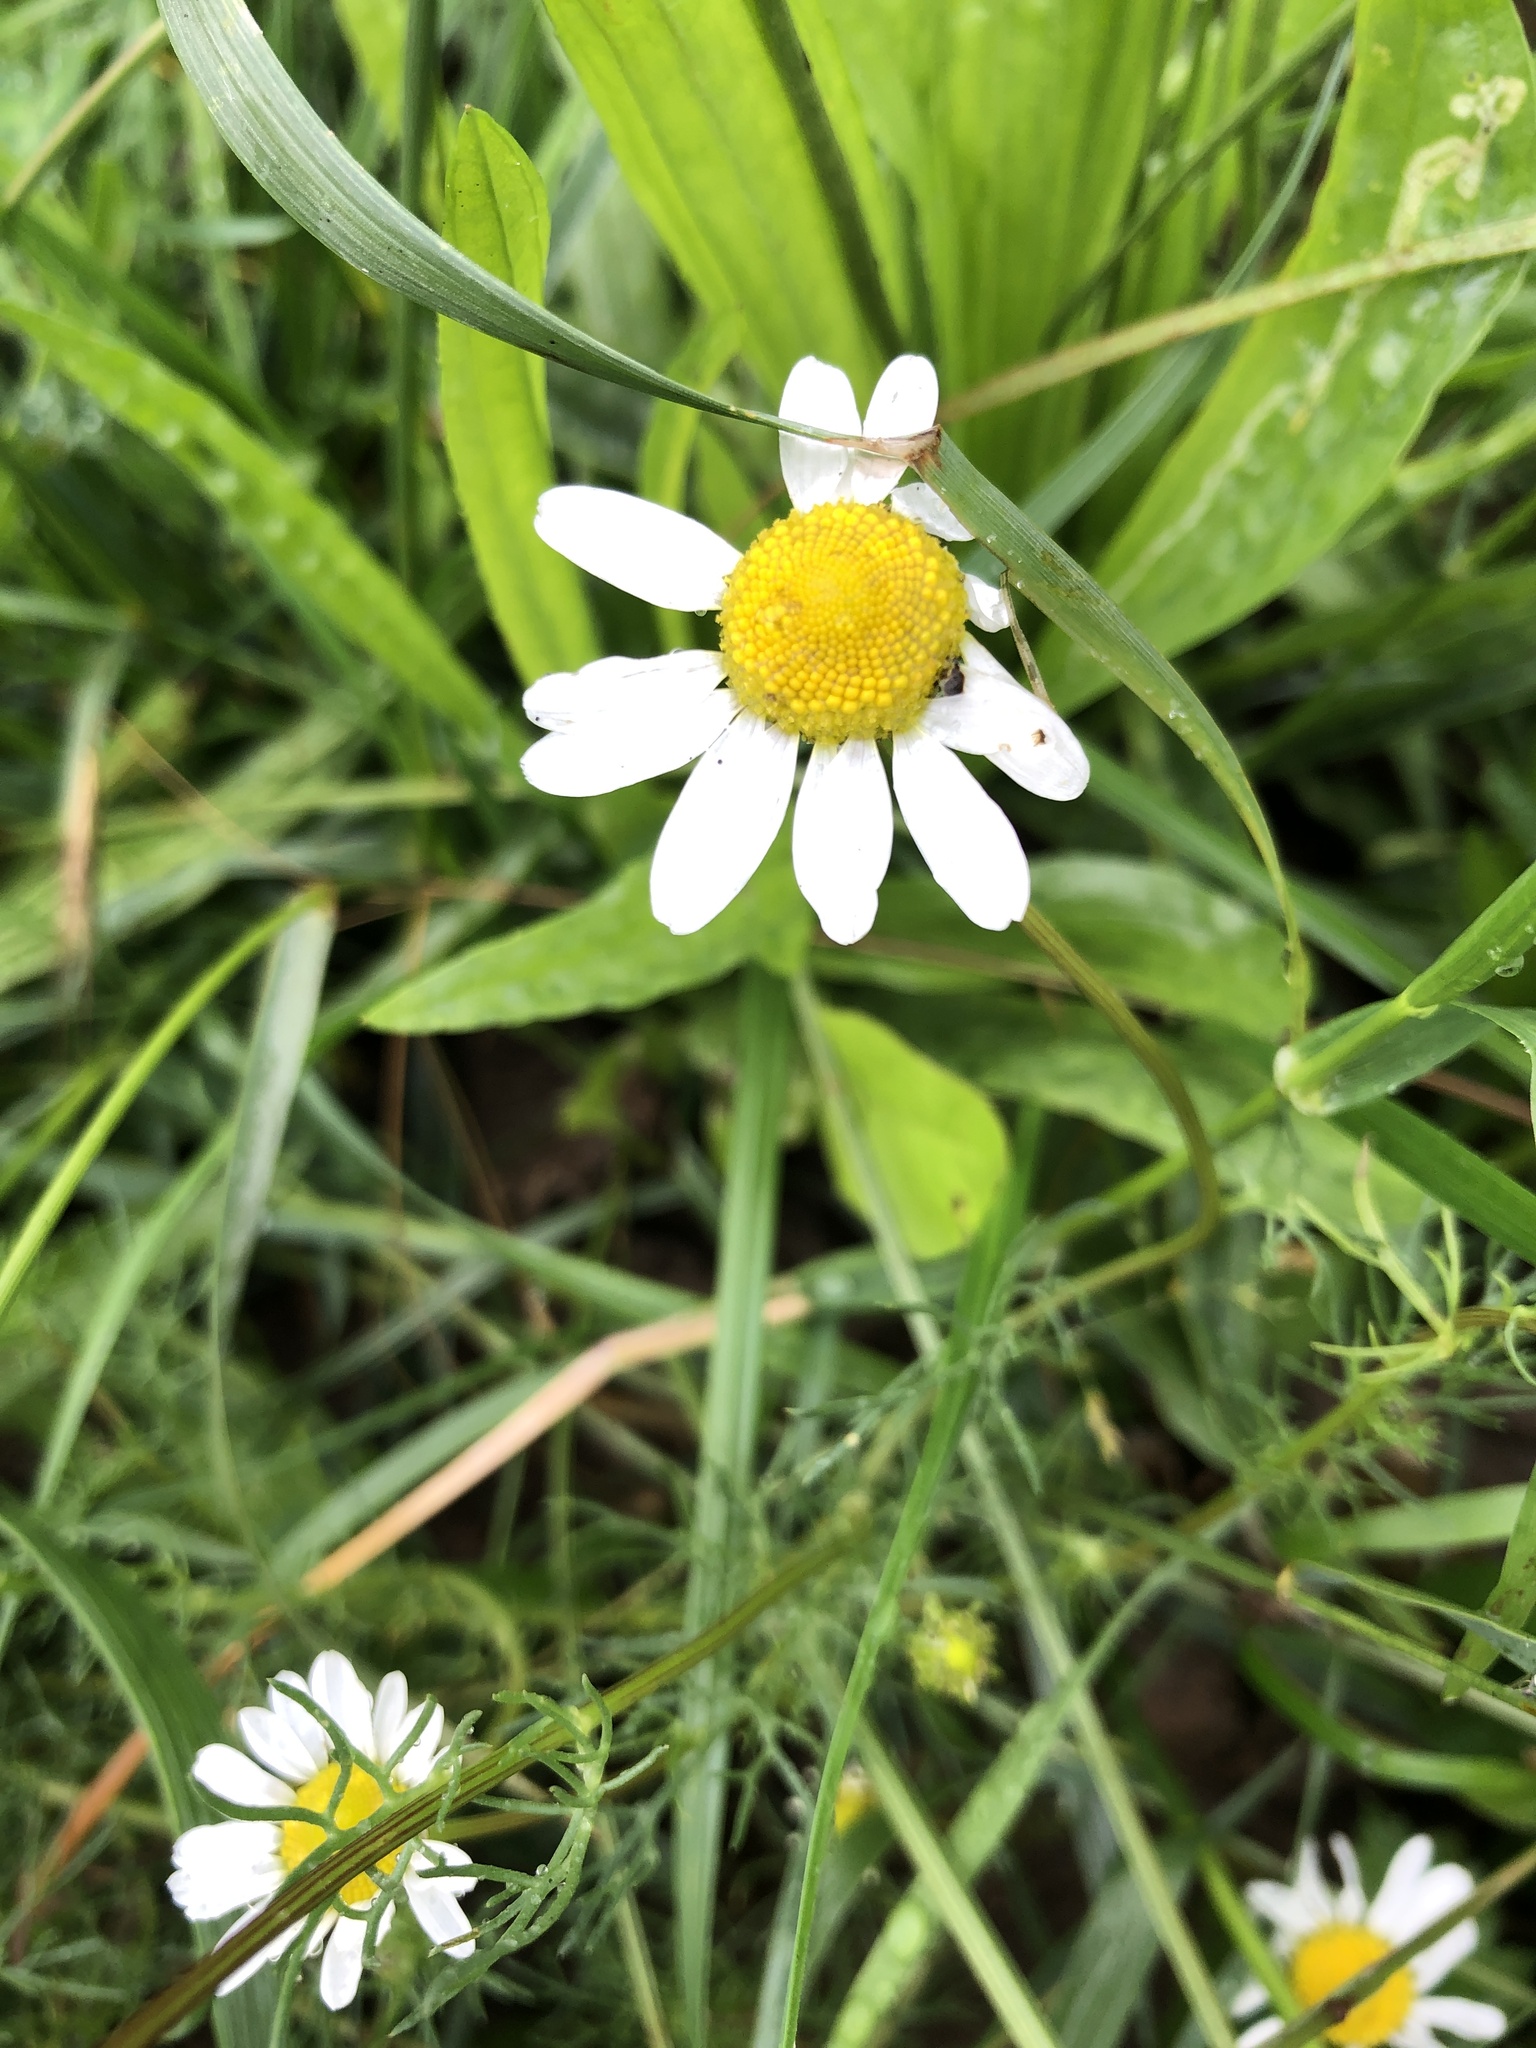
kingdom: Plantae
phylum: Tracheophyta
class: Magnoliopsida
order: Asterales
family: Asteraceae
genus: Tripleurospermum
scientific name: Tripleurospermum inodorum
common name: Scentless mayweed
